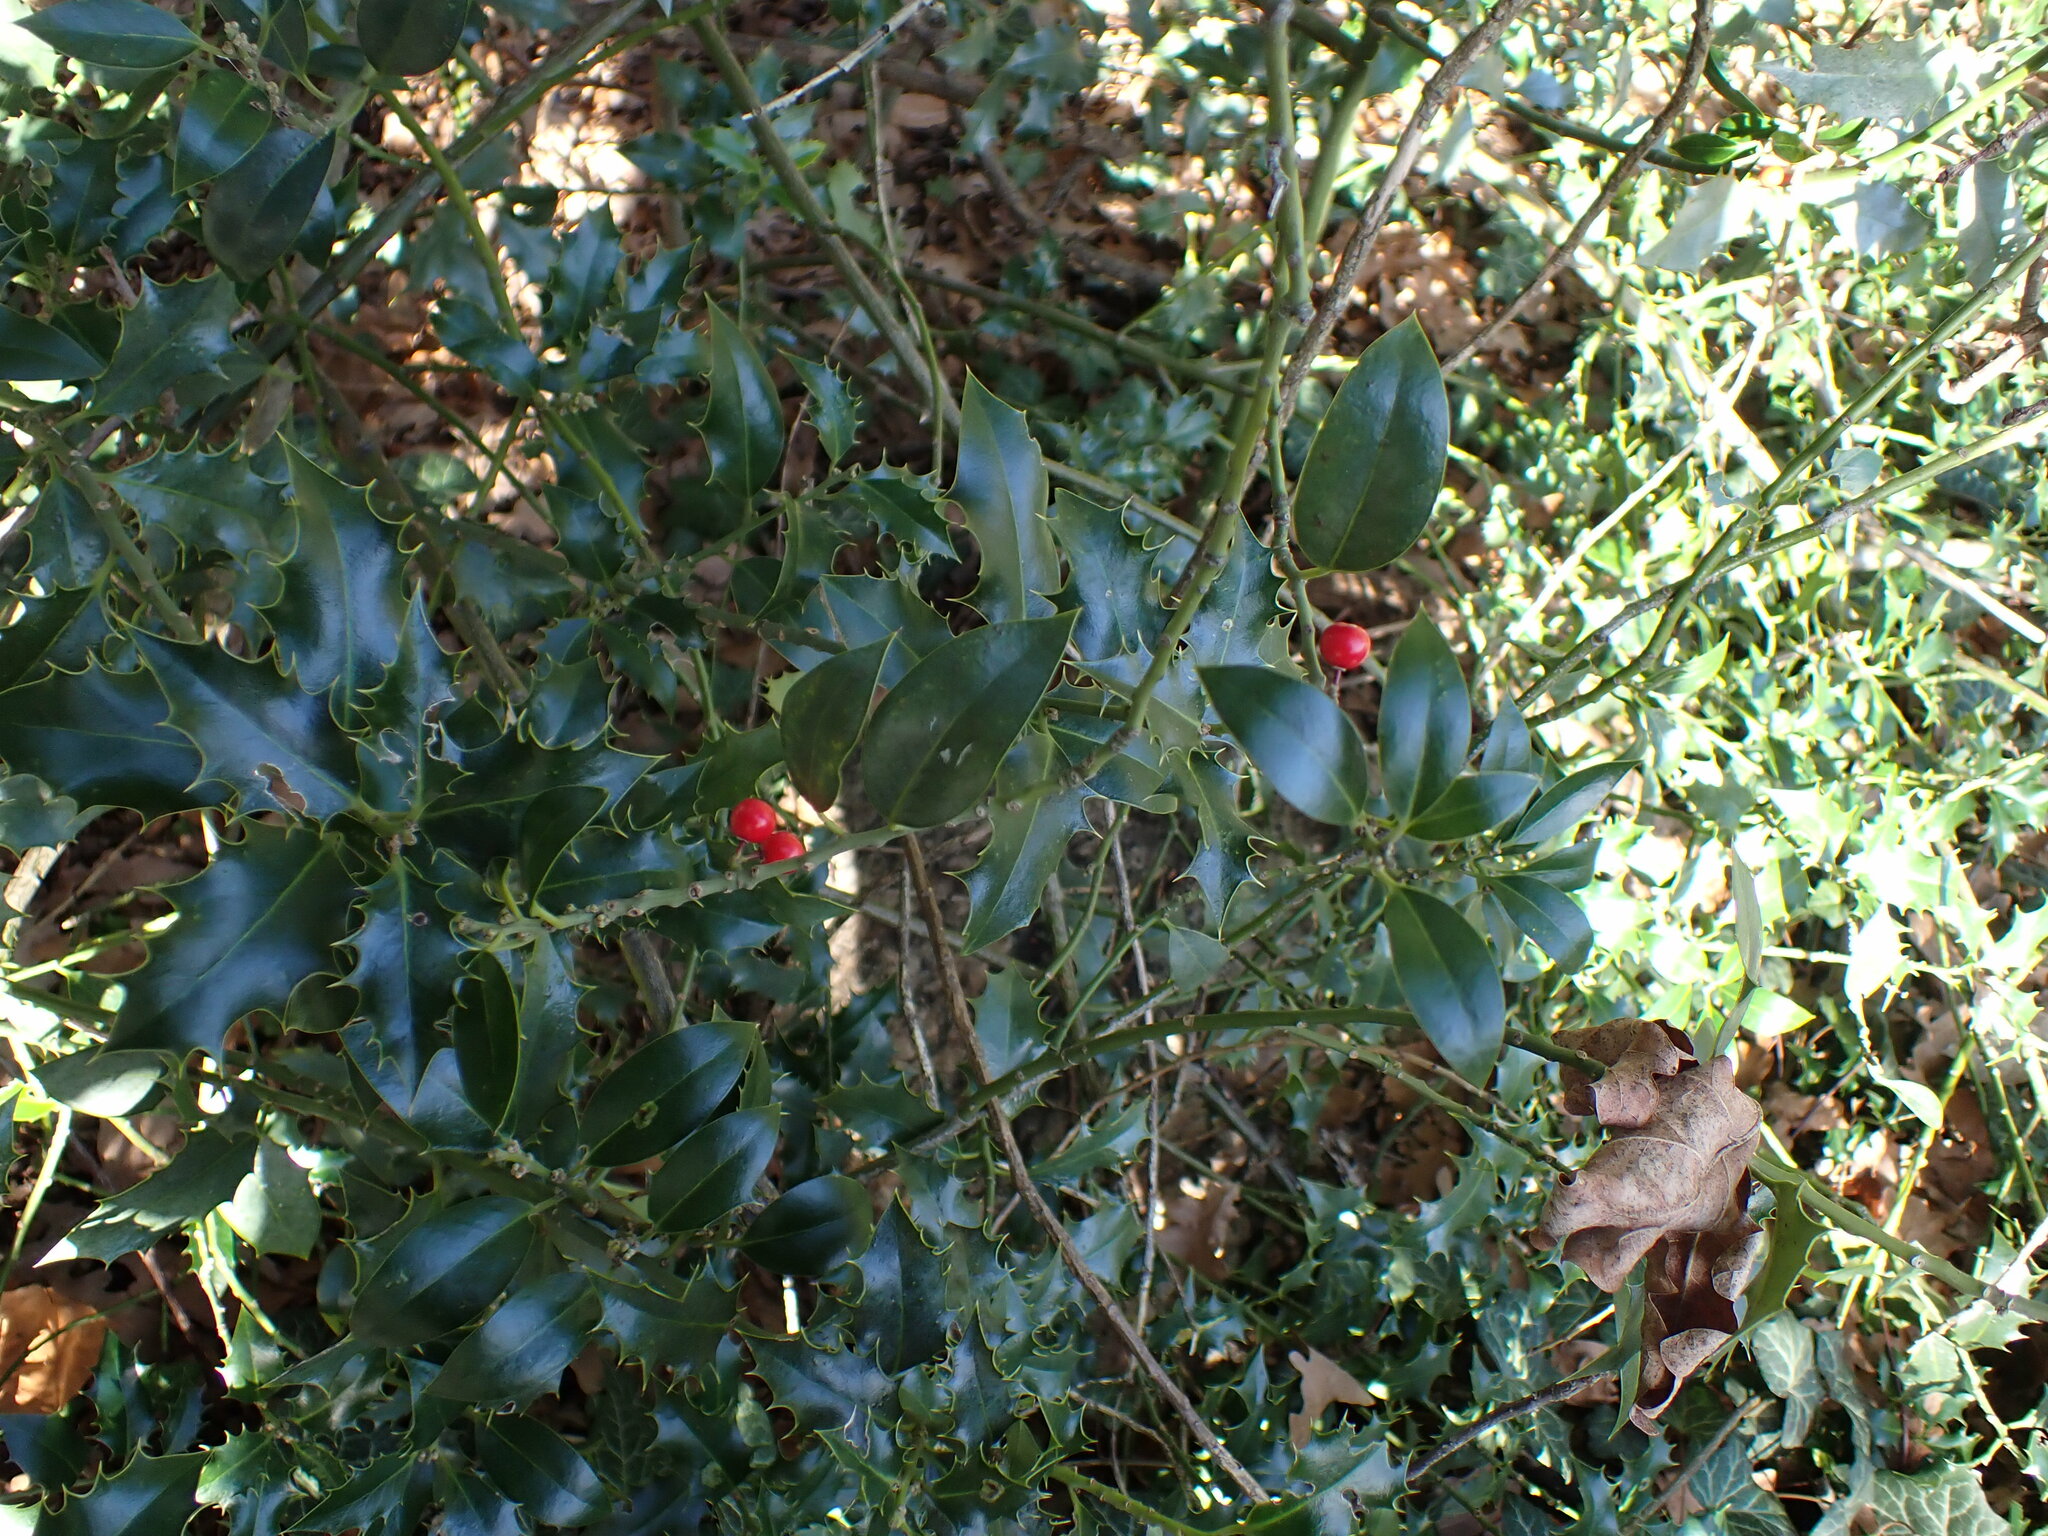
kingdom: Plantae
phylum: Tracheophyta
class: Magnoliopsida
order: Aquifoliales
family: Aquifoliaceae
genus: Ilex
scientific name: Ilex aquifolium
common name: English holly
